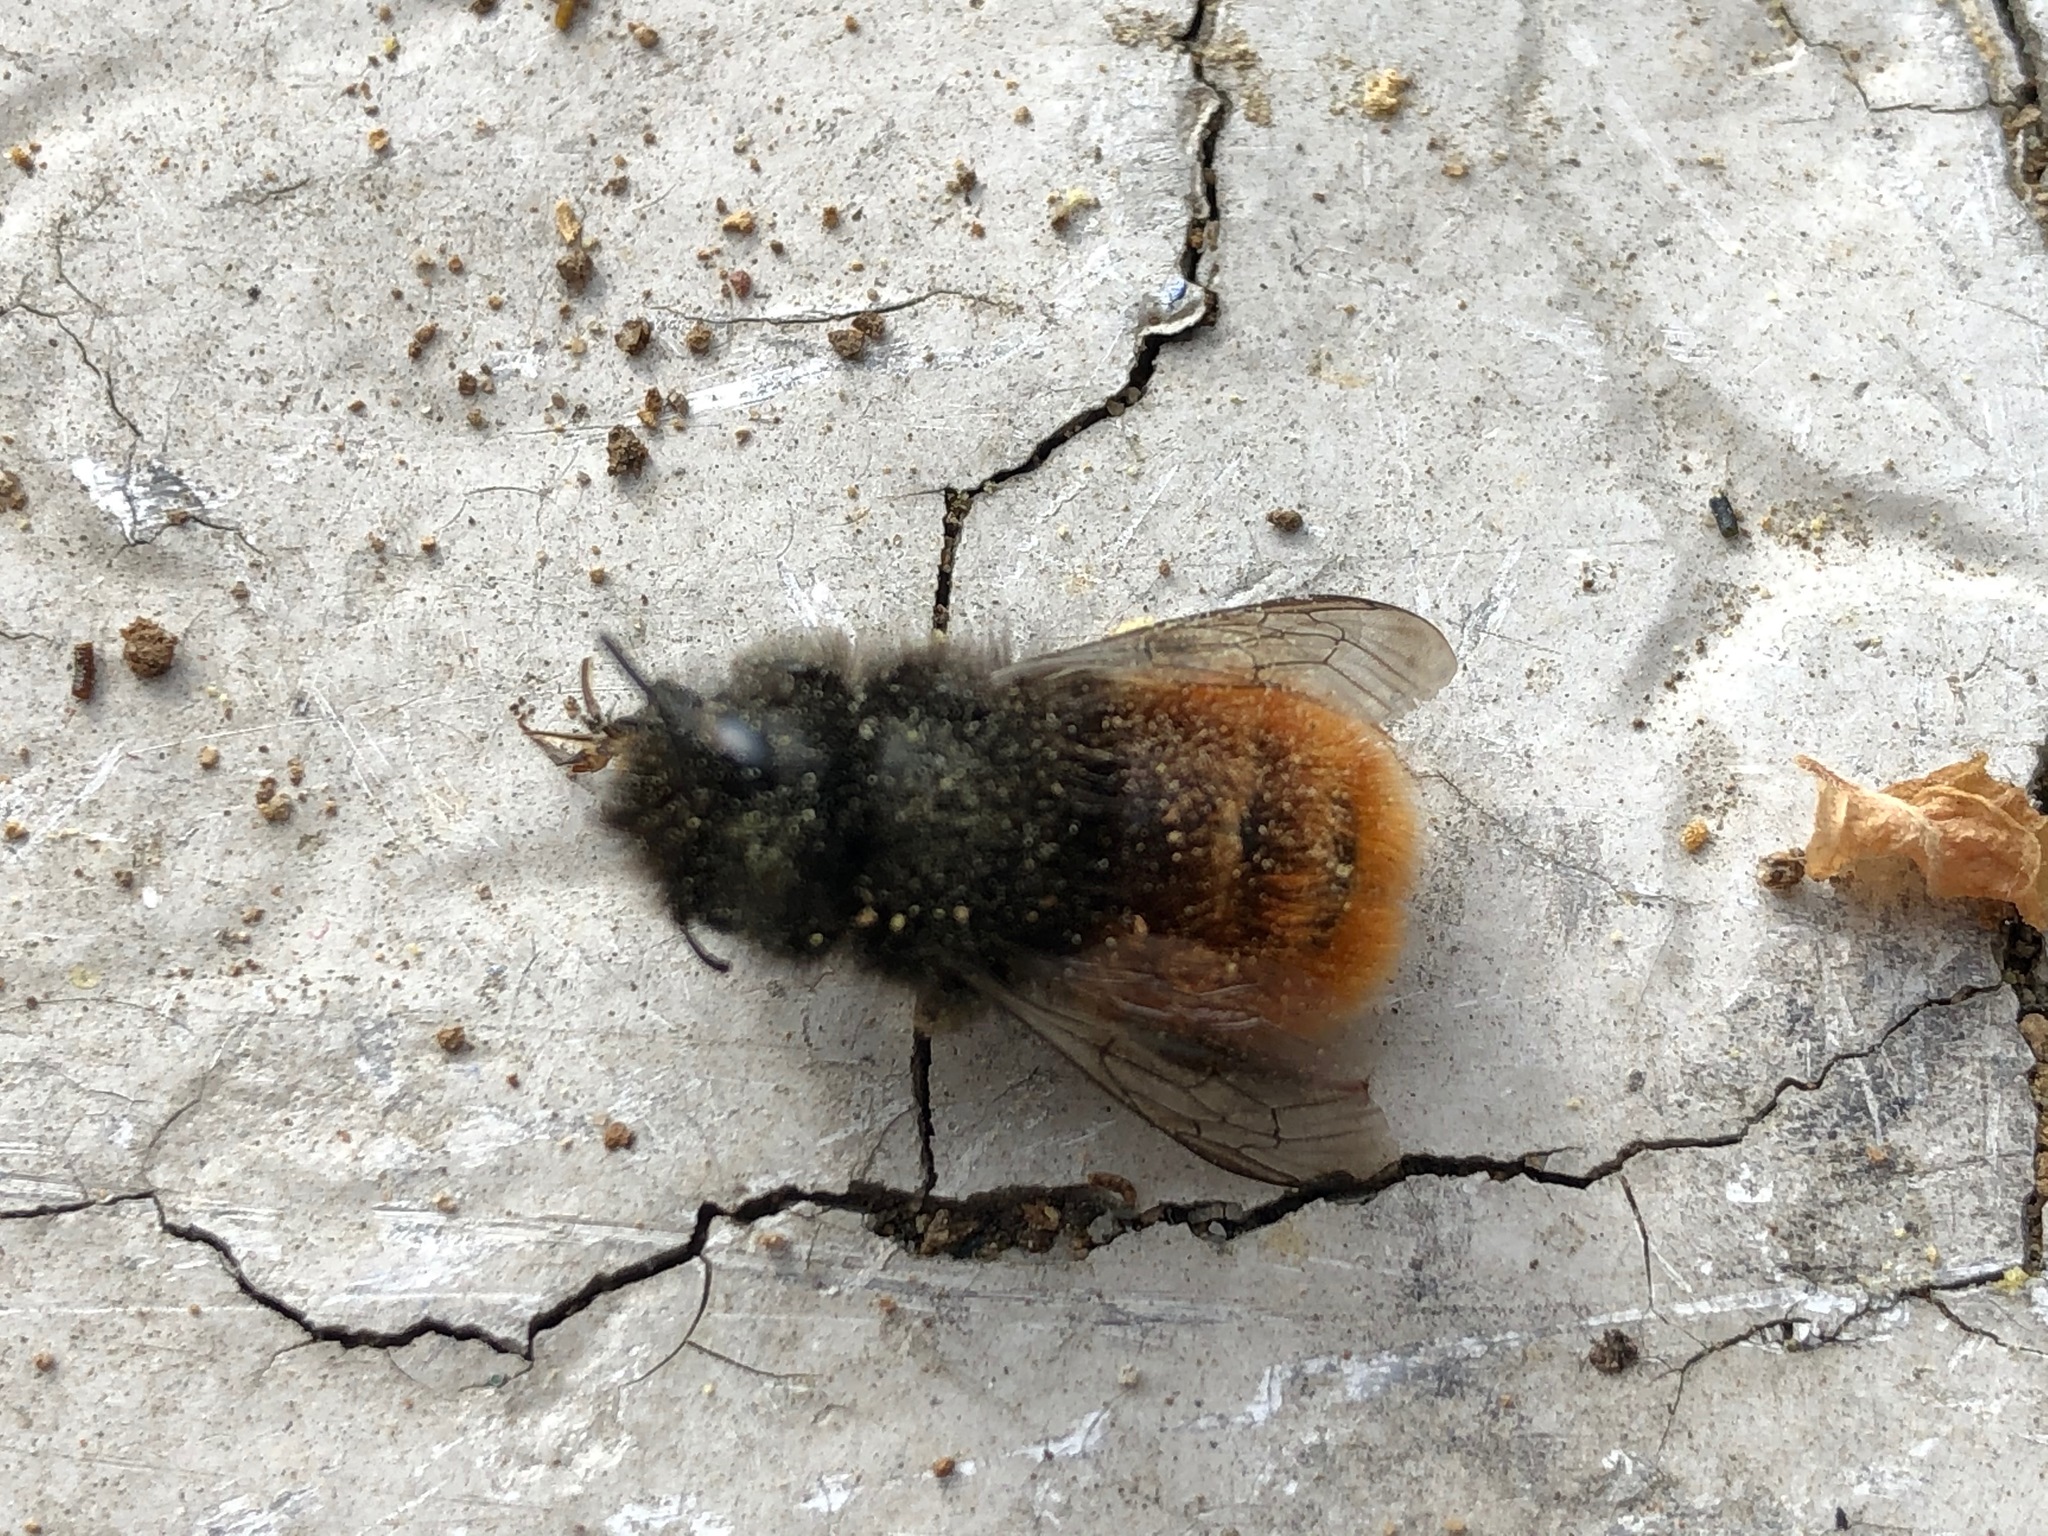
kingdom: Animalia
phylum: Arthropoda
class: Insecta
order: Hymenoptera
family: Megachilidae
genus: Osmia
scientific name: Osmia cornuta
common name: Mason bee
